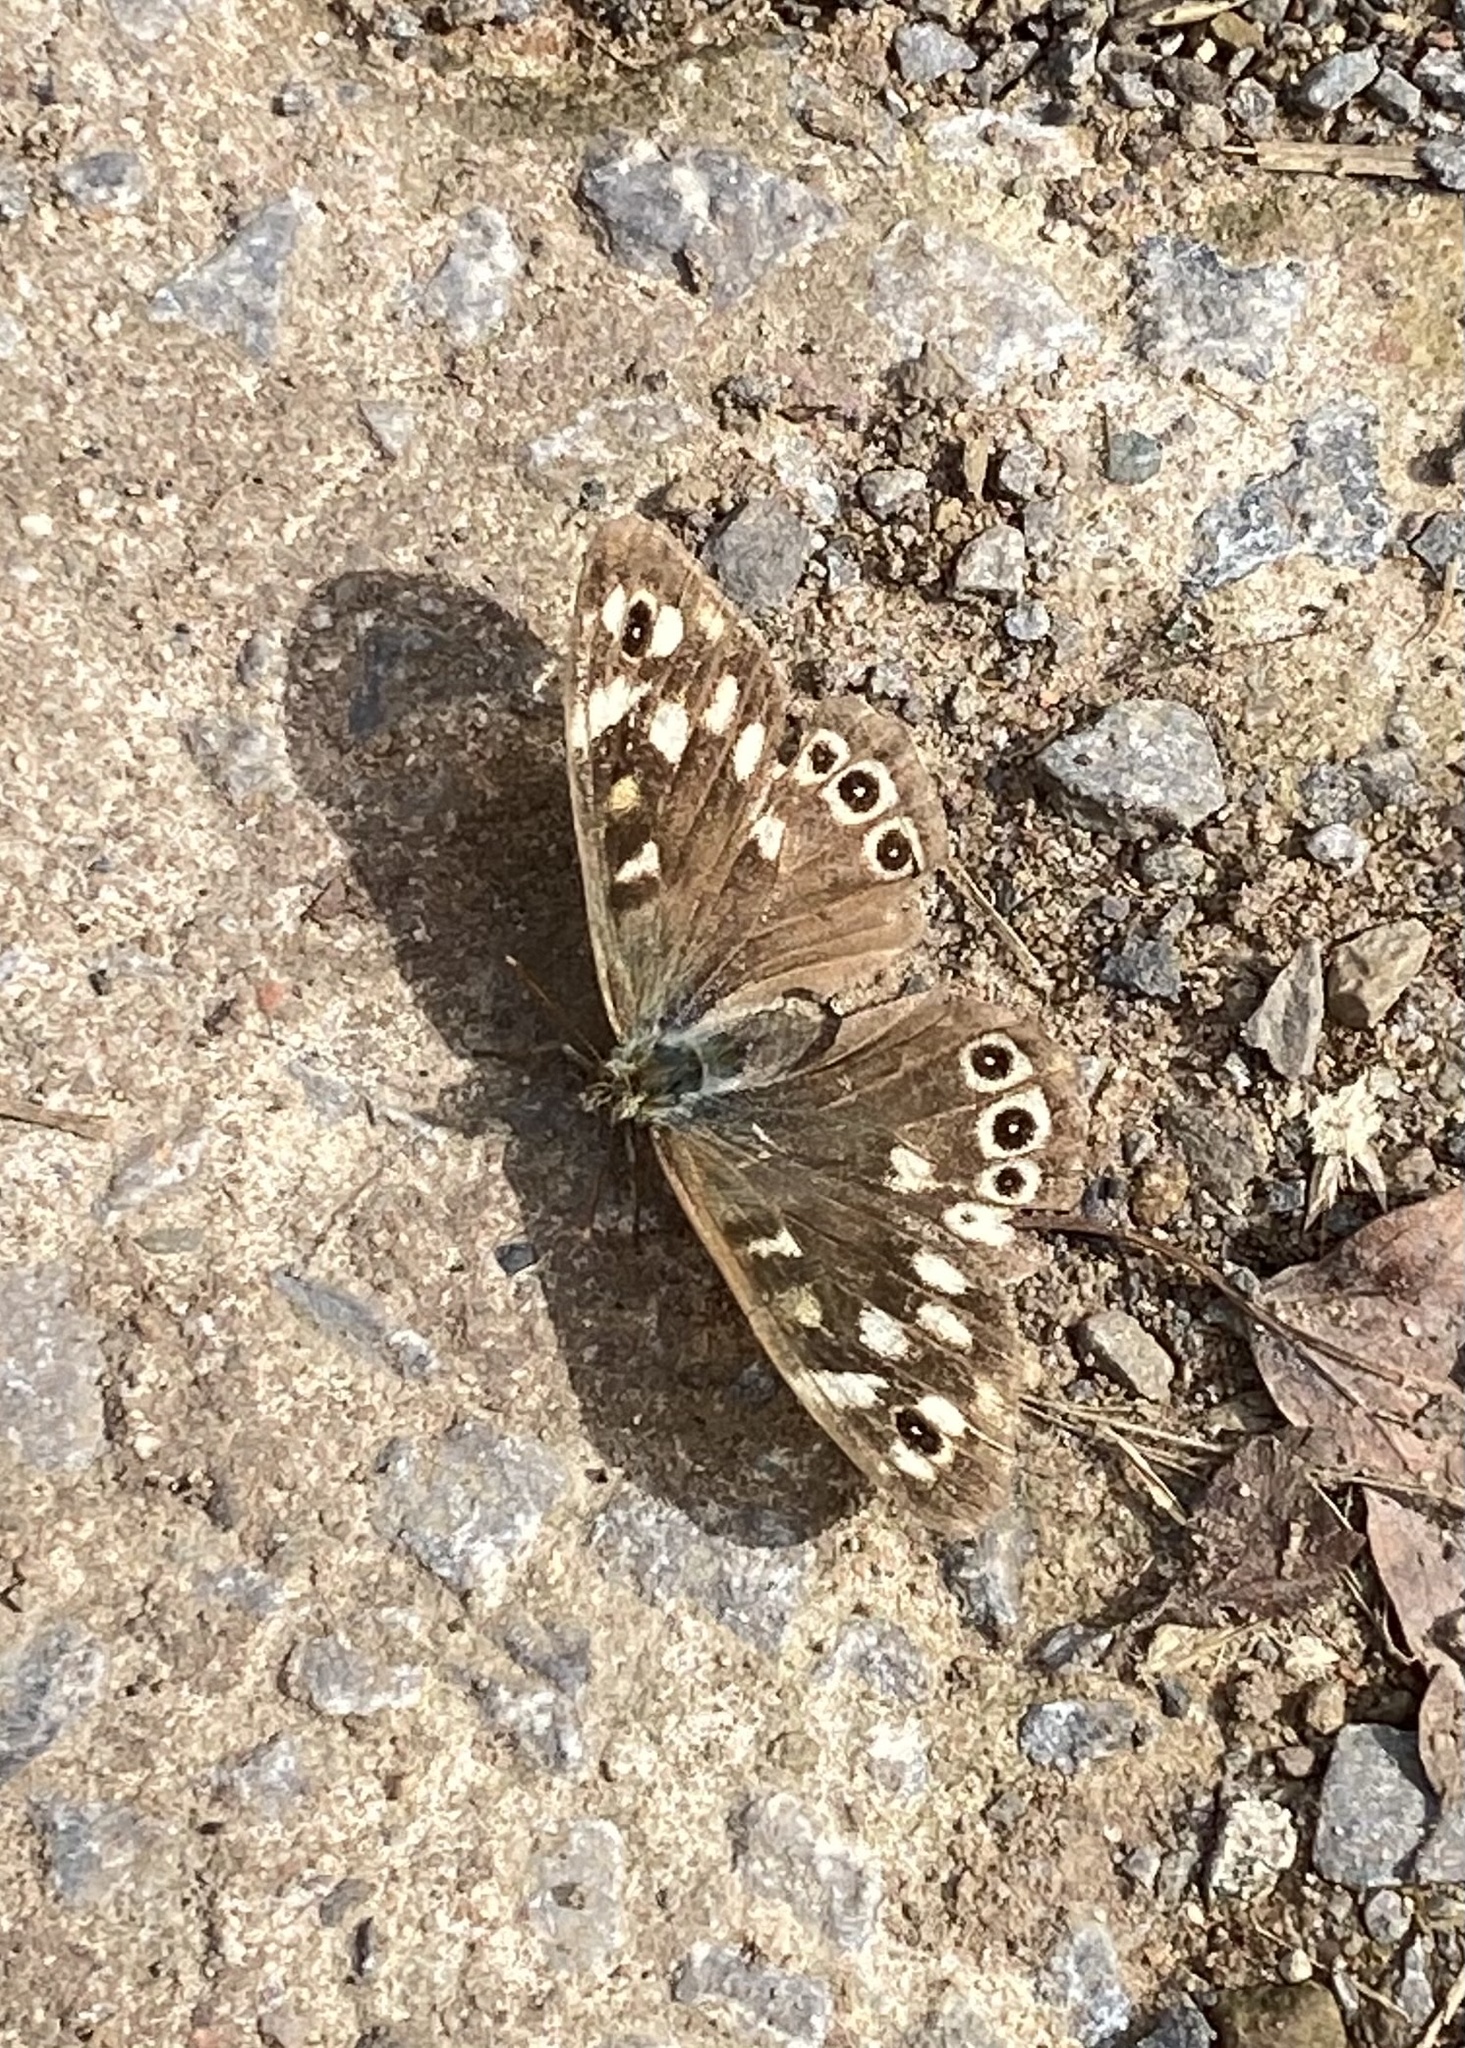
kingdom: Animalia
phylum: Arthropoda
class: Insecta
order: Lepidoptera
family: Nymphalidae
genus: Pararge
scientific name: Pararge aegeria
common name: Speckled wood
